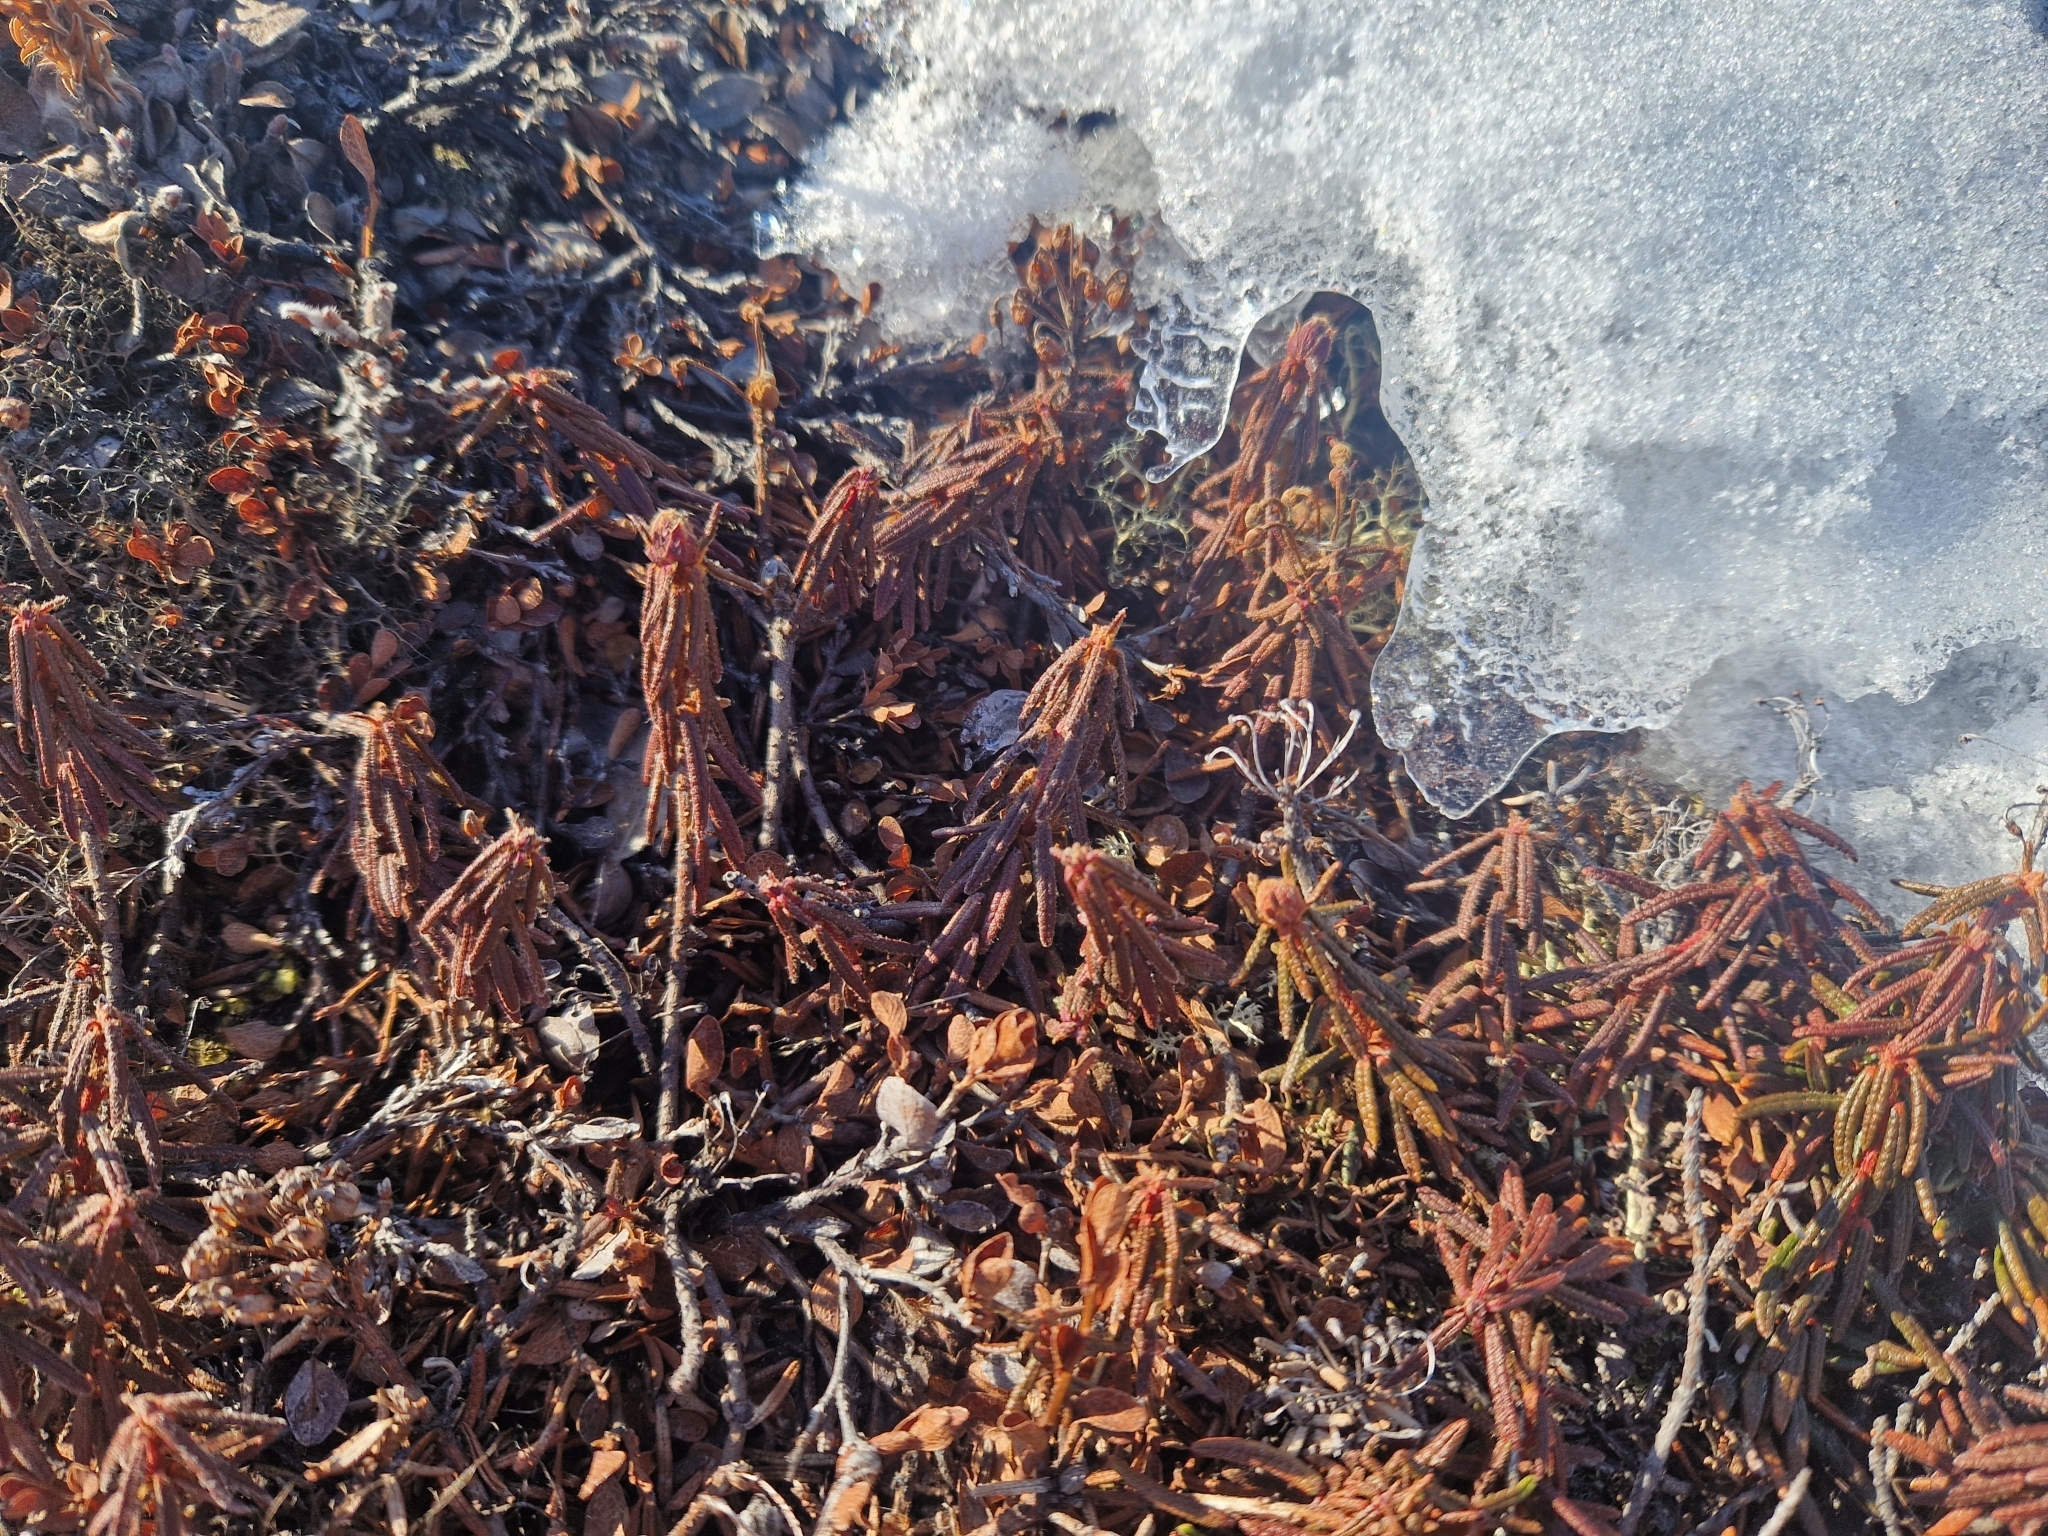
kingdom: Plantae
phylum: Tracheophyta
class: Magnoliopsida
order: Ericales
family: Ericaceae
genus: Rhododendron
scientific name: Rhododendron tomentosum
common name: Marsh labrador tea
